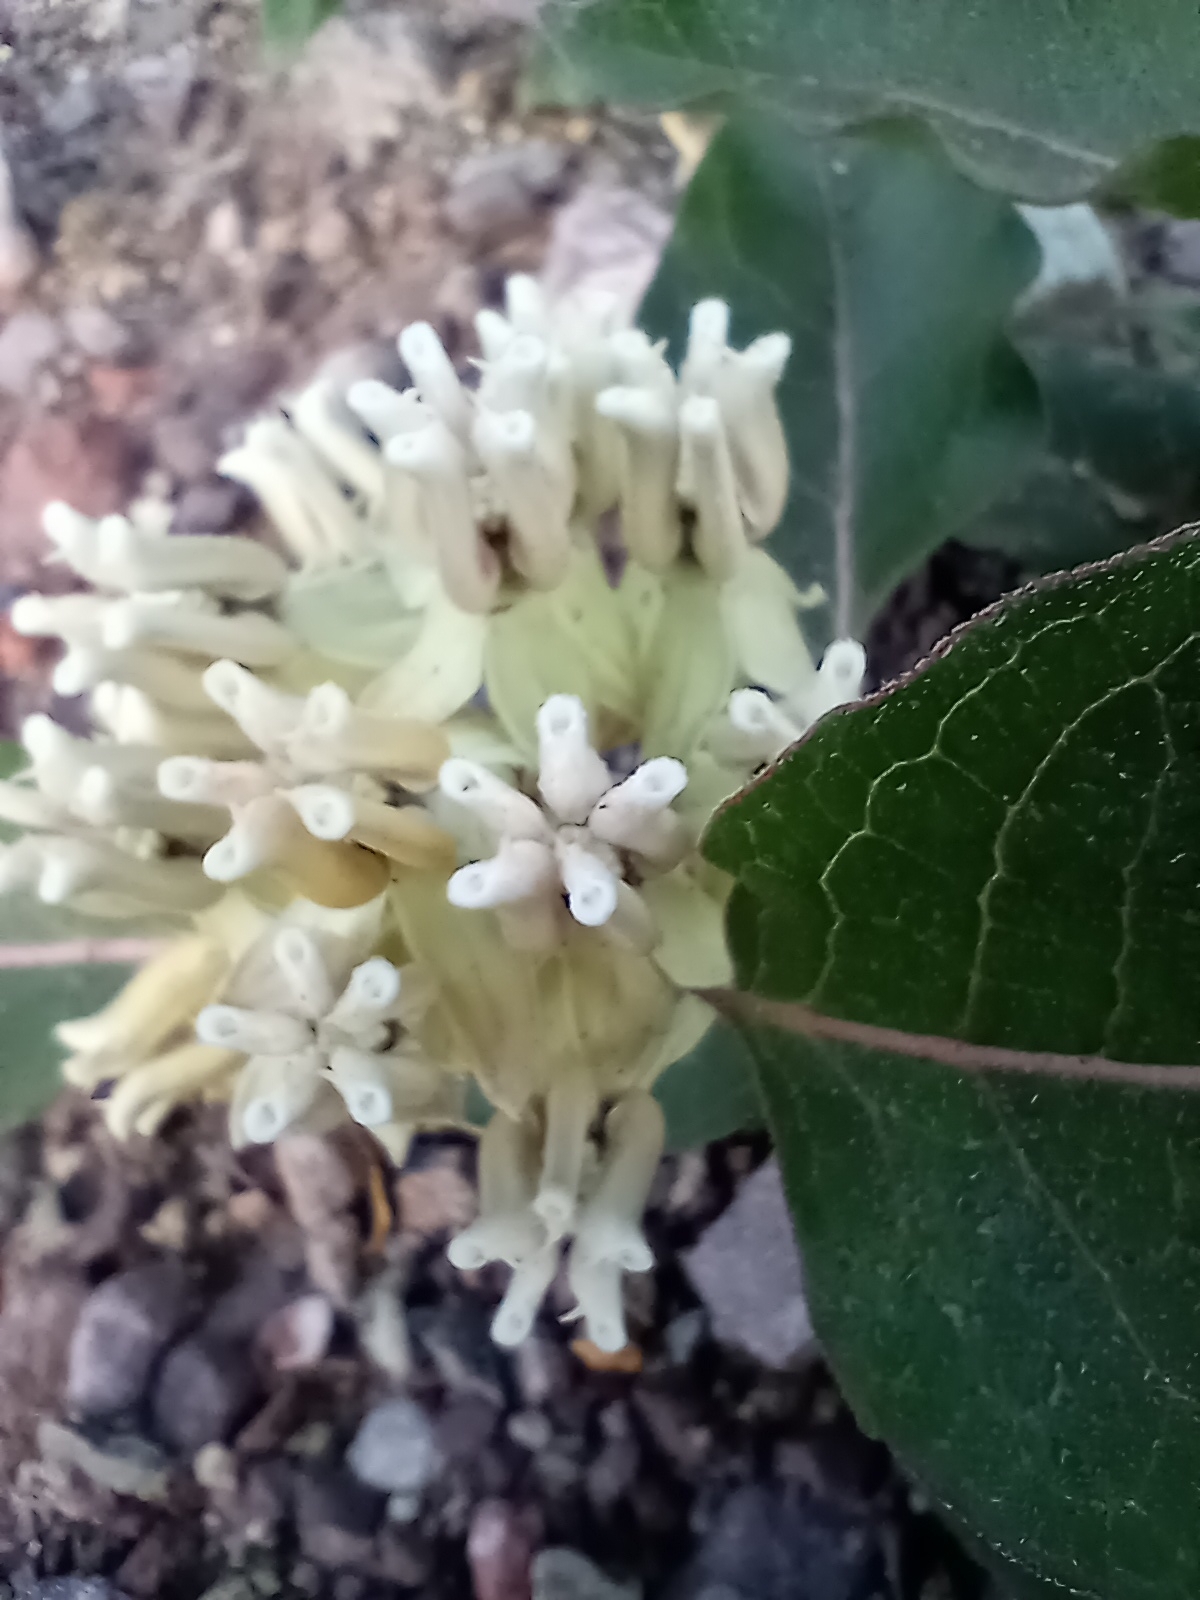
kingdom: Plantae
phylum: Tracheophyta
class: Magnoliopsida
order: Gentianales
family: Apocynaceae
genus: Asclepias
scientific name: Asclepias nyctaginifolia
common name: Mojave milkweed
